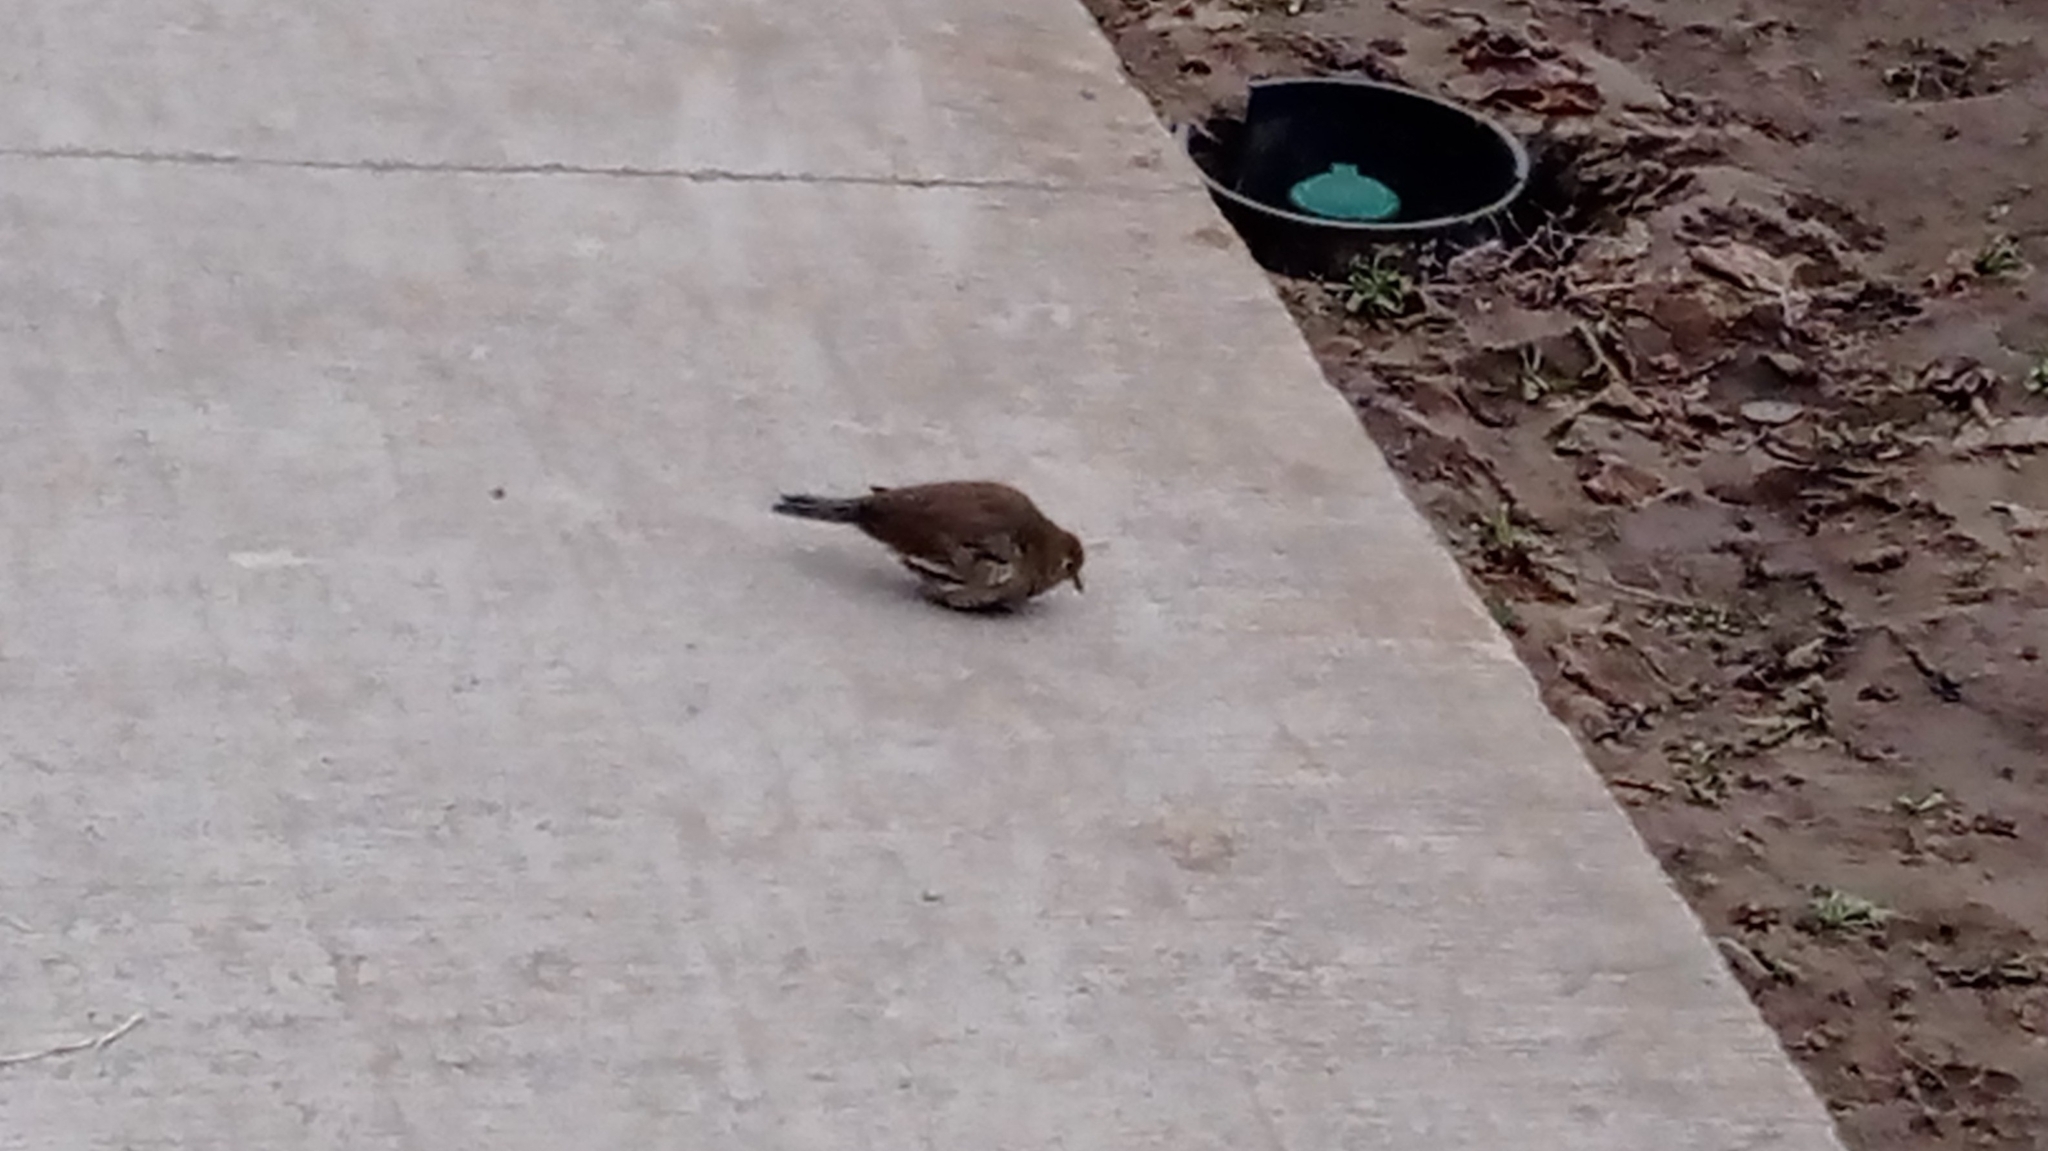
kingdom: Animalia
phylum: Chordata
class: Aves
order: Columbiformes
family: Columbidae
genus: Columbina
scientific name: Columbina picui
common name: Picui ground dove
